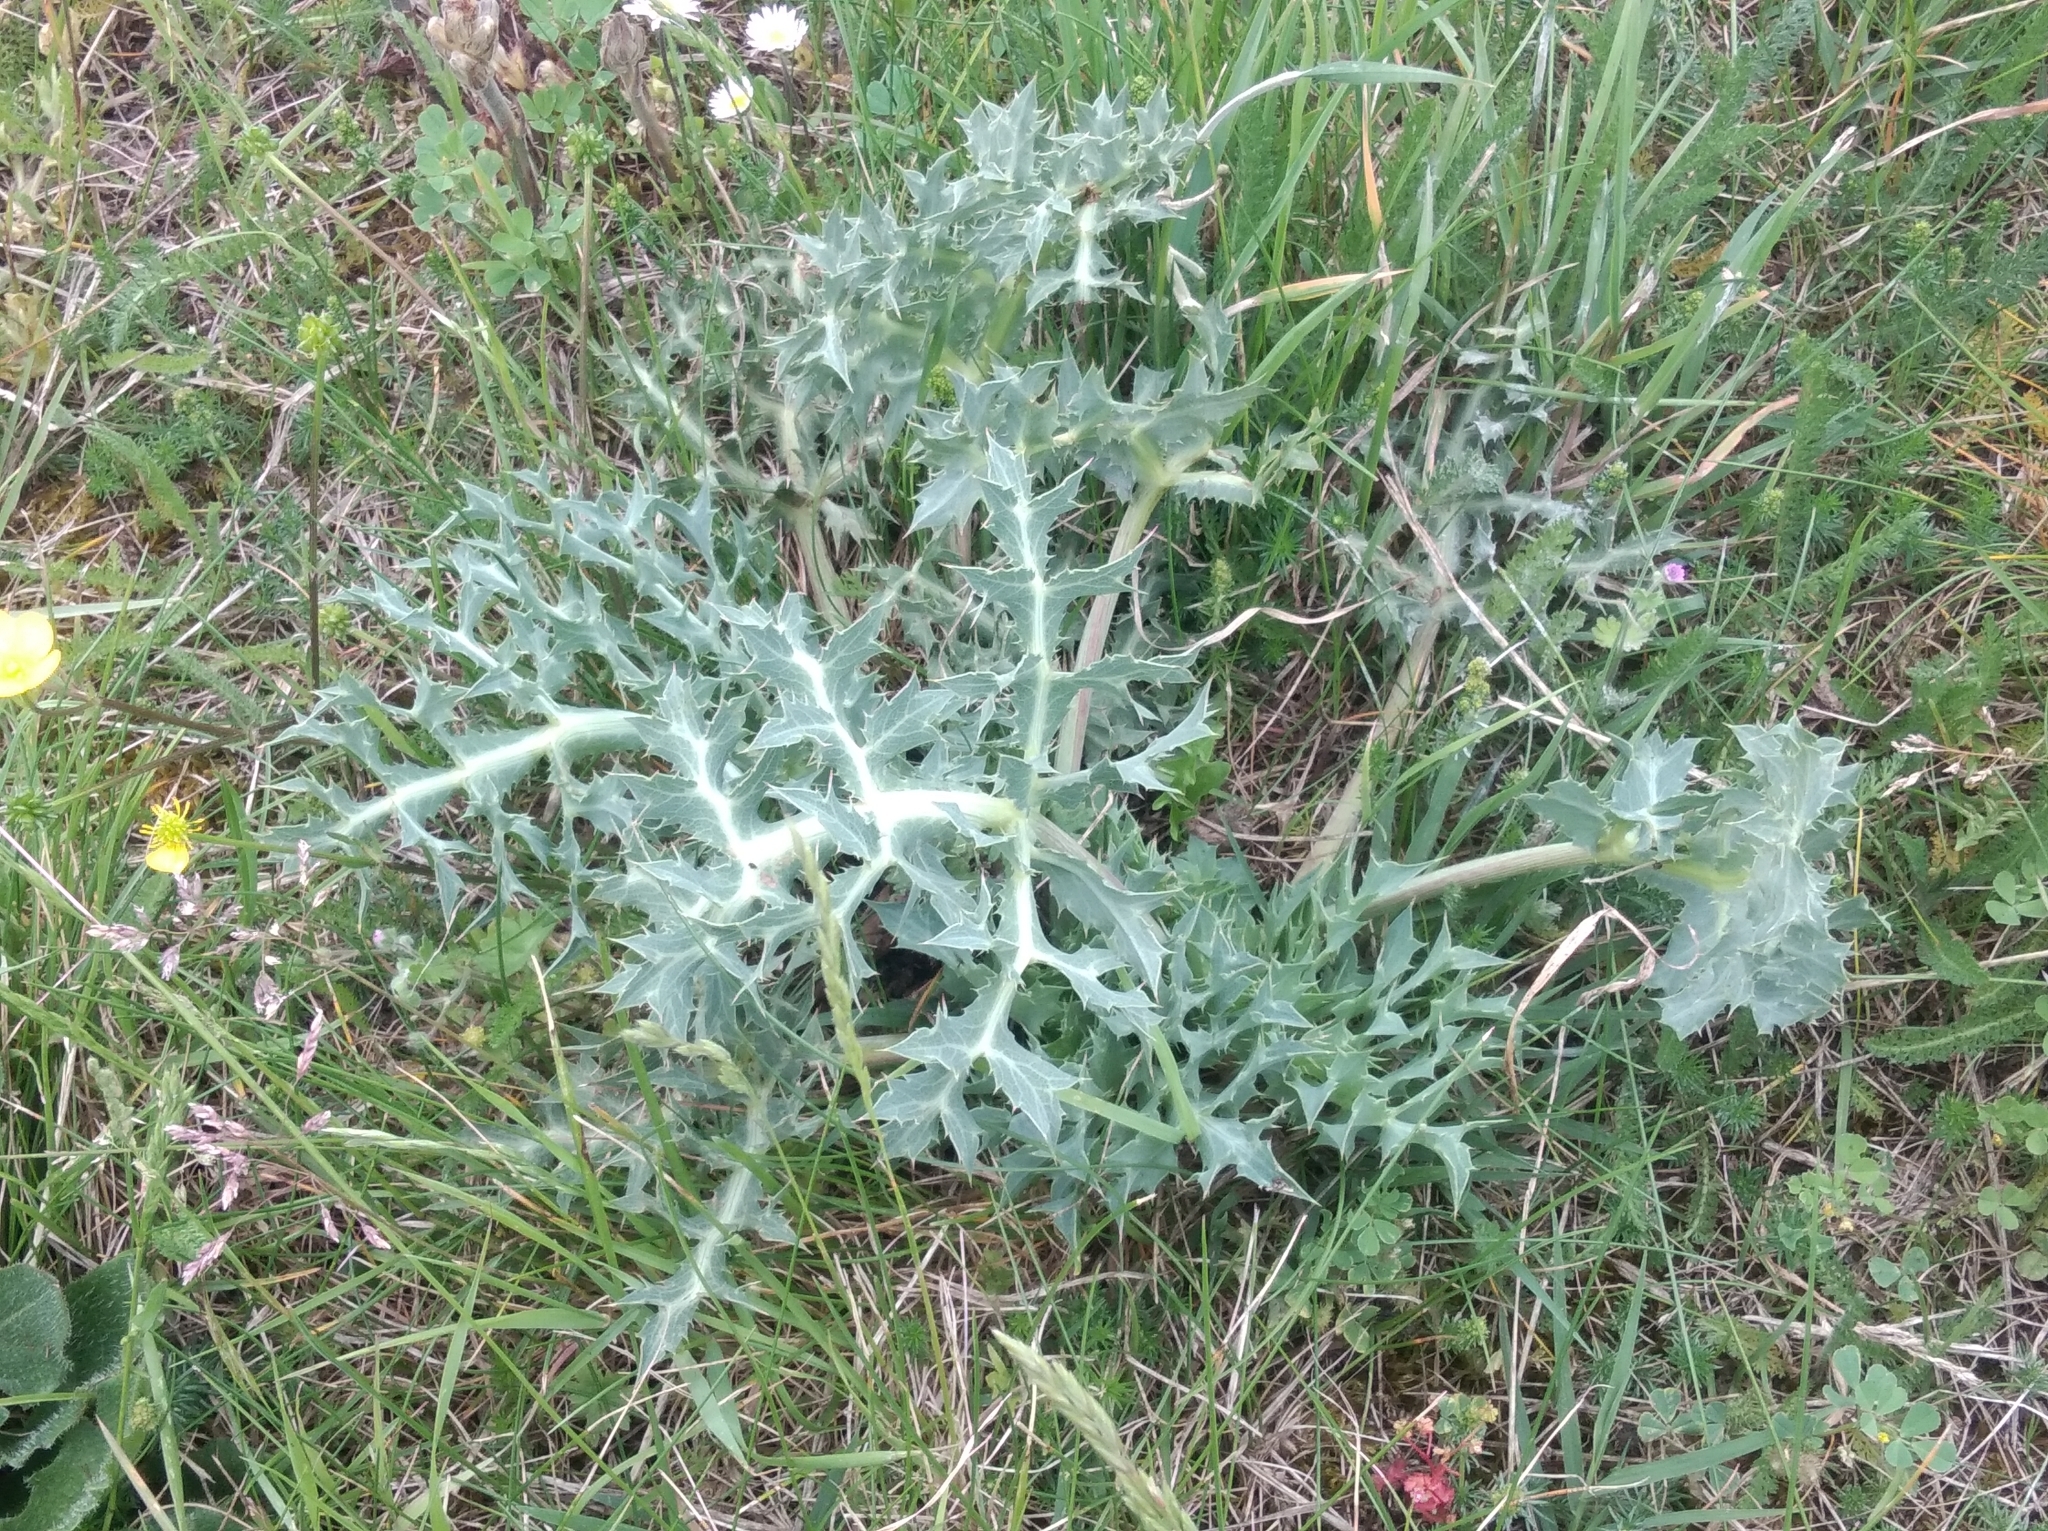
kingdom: Plantae
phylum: Tracheophyta
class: Magnoliopsida
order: Apiales
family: Apiaceae
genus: Eryngium
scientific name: Eryngium campestre
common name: Field eryngo
